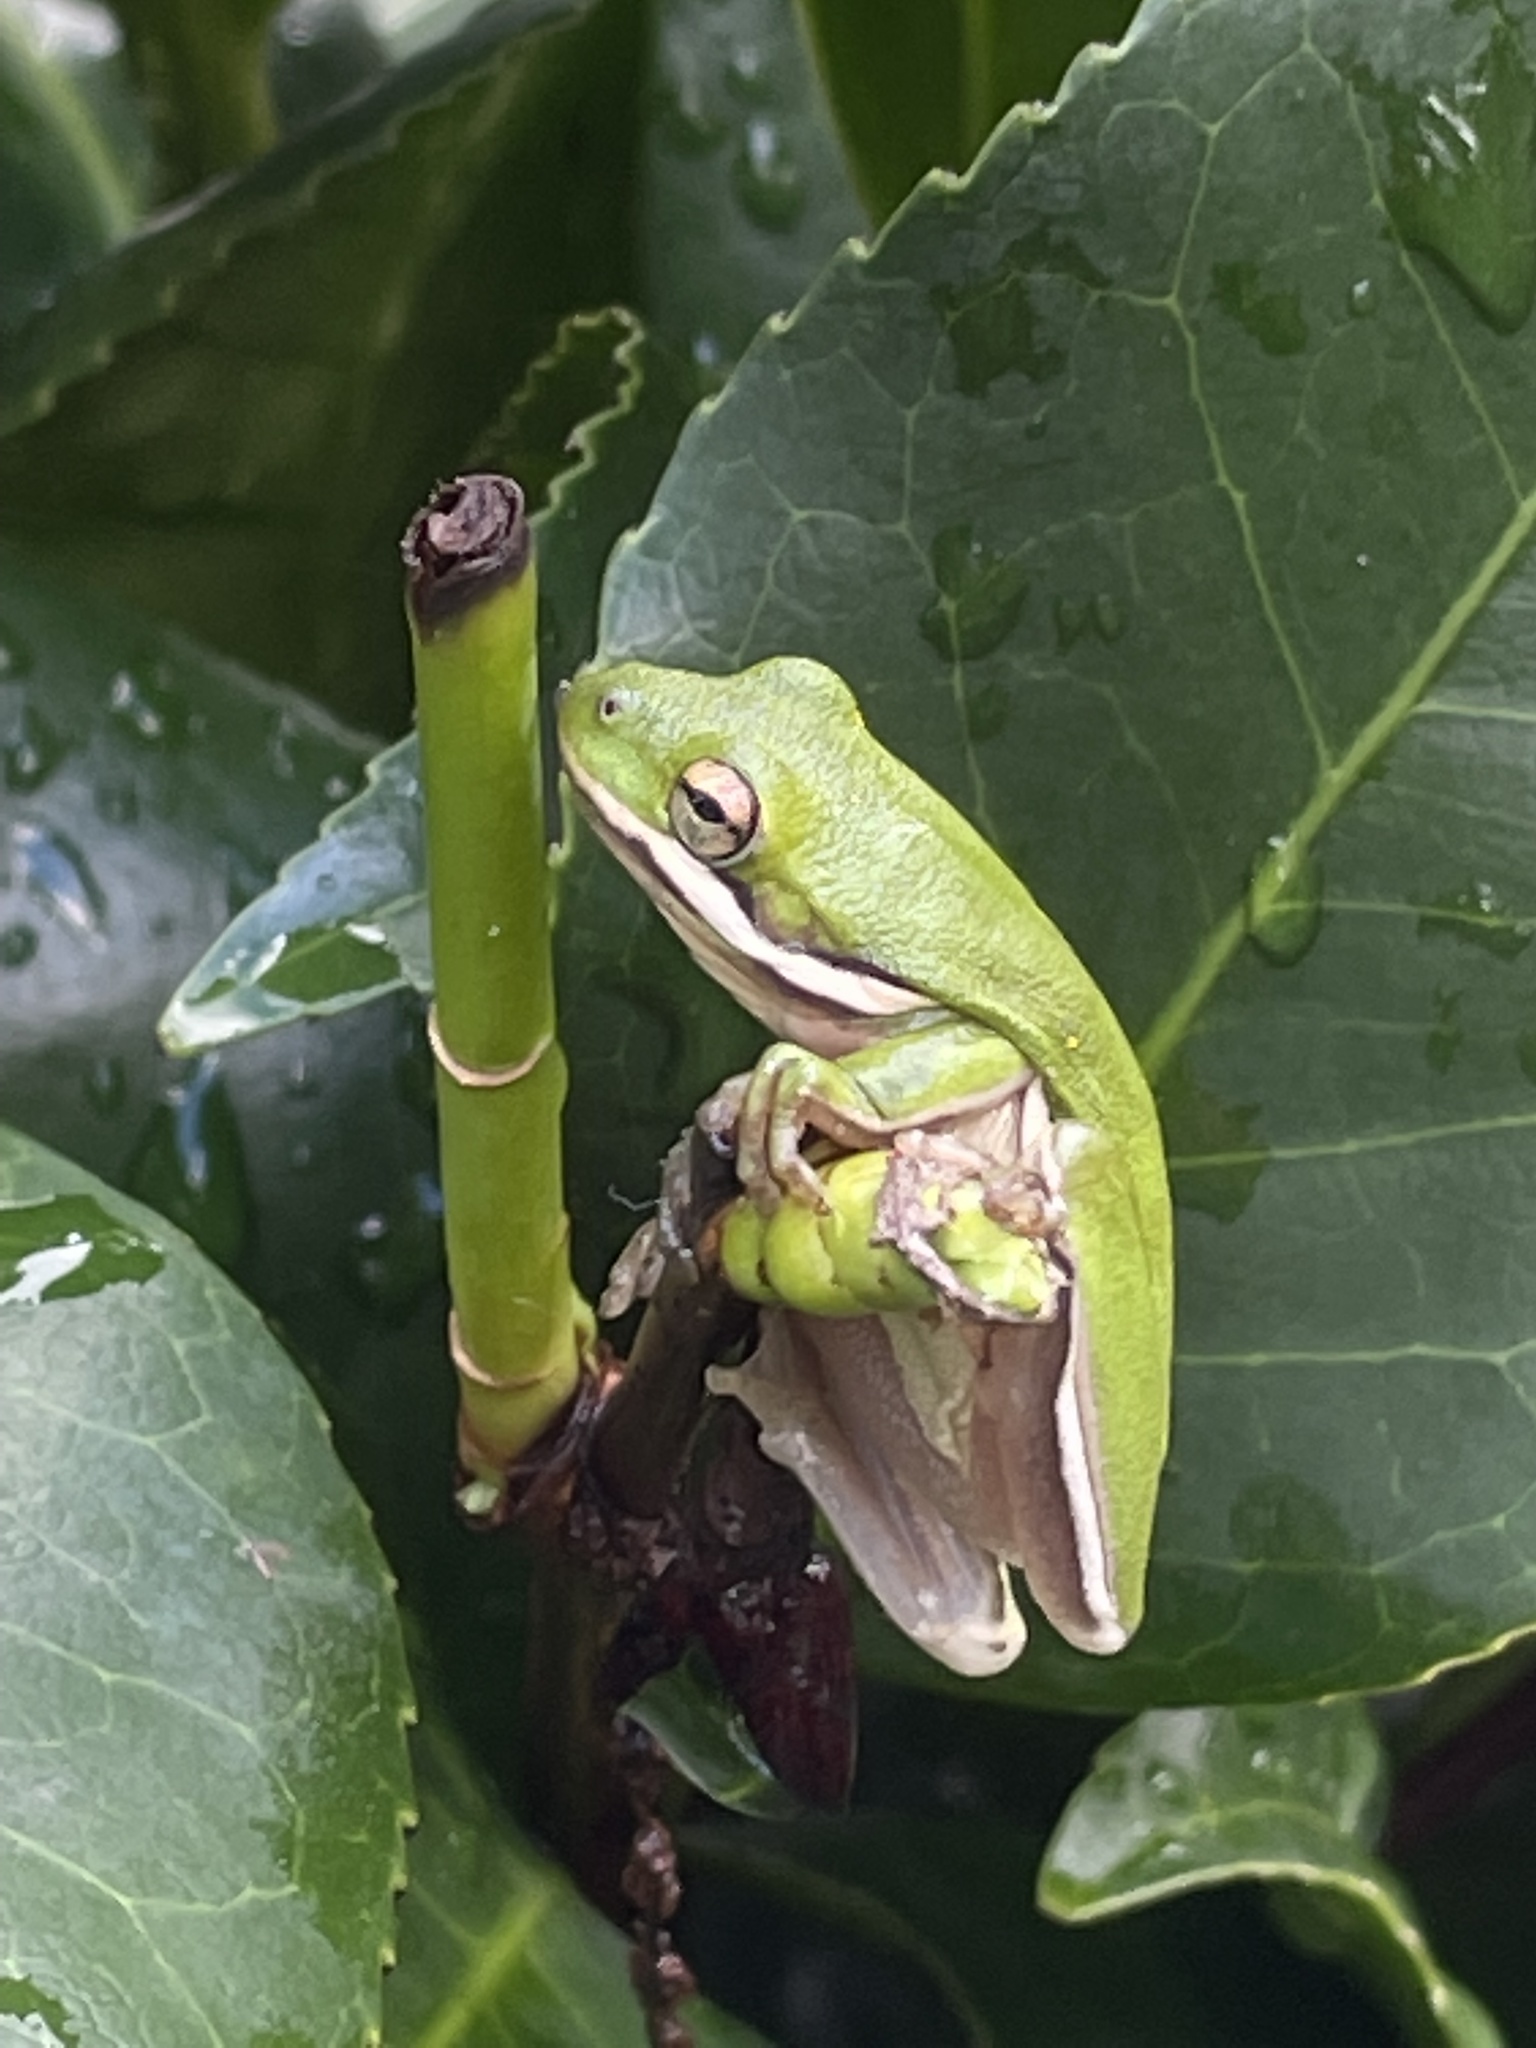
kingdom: Animalia
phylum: Chordata
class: Amphibia
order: Anura
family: Hylidae
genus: Dryophytes
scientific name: Dryophytes cinereus
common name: Green treefrog
